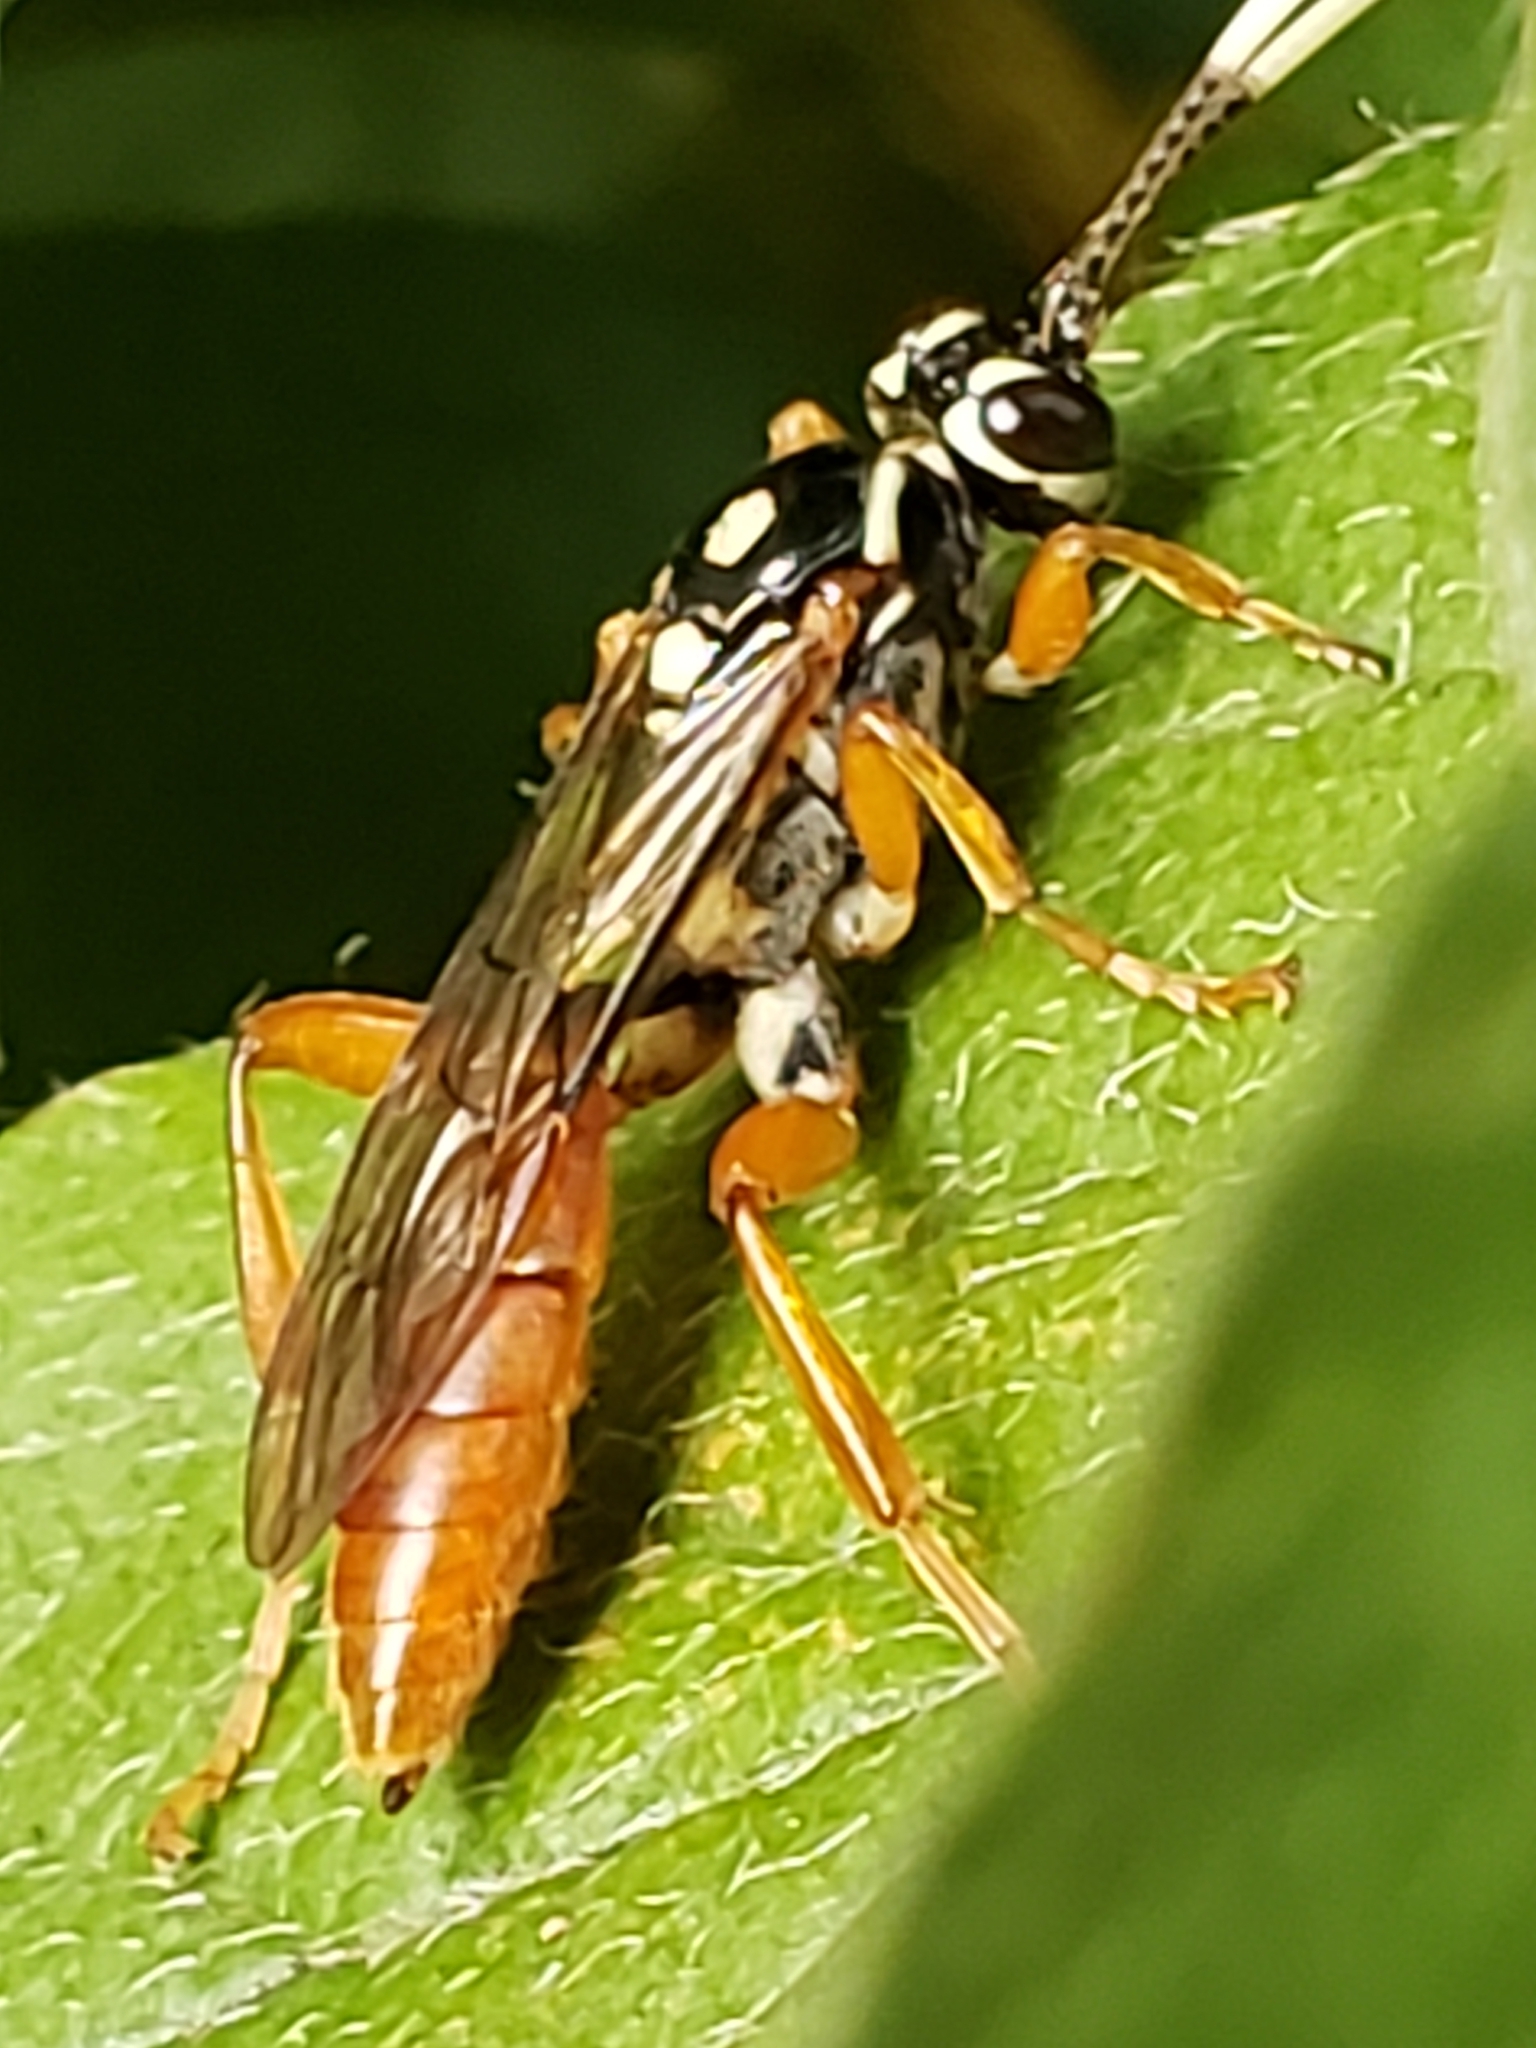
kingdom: Animalia
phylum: Arthropoda
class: Insecta
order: Hymenoptera
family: Ichneumonidae
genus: Cratichneumon
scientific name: Cratichneumon w-album
